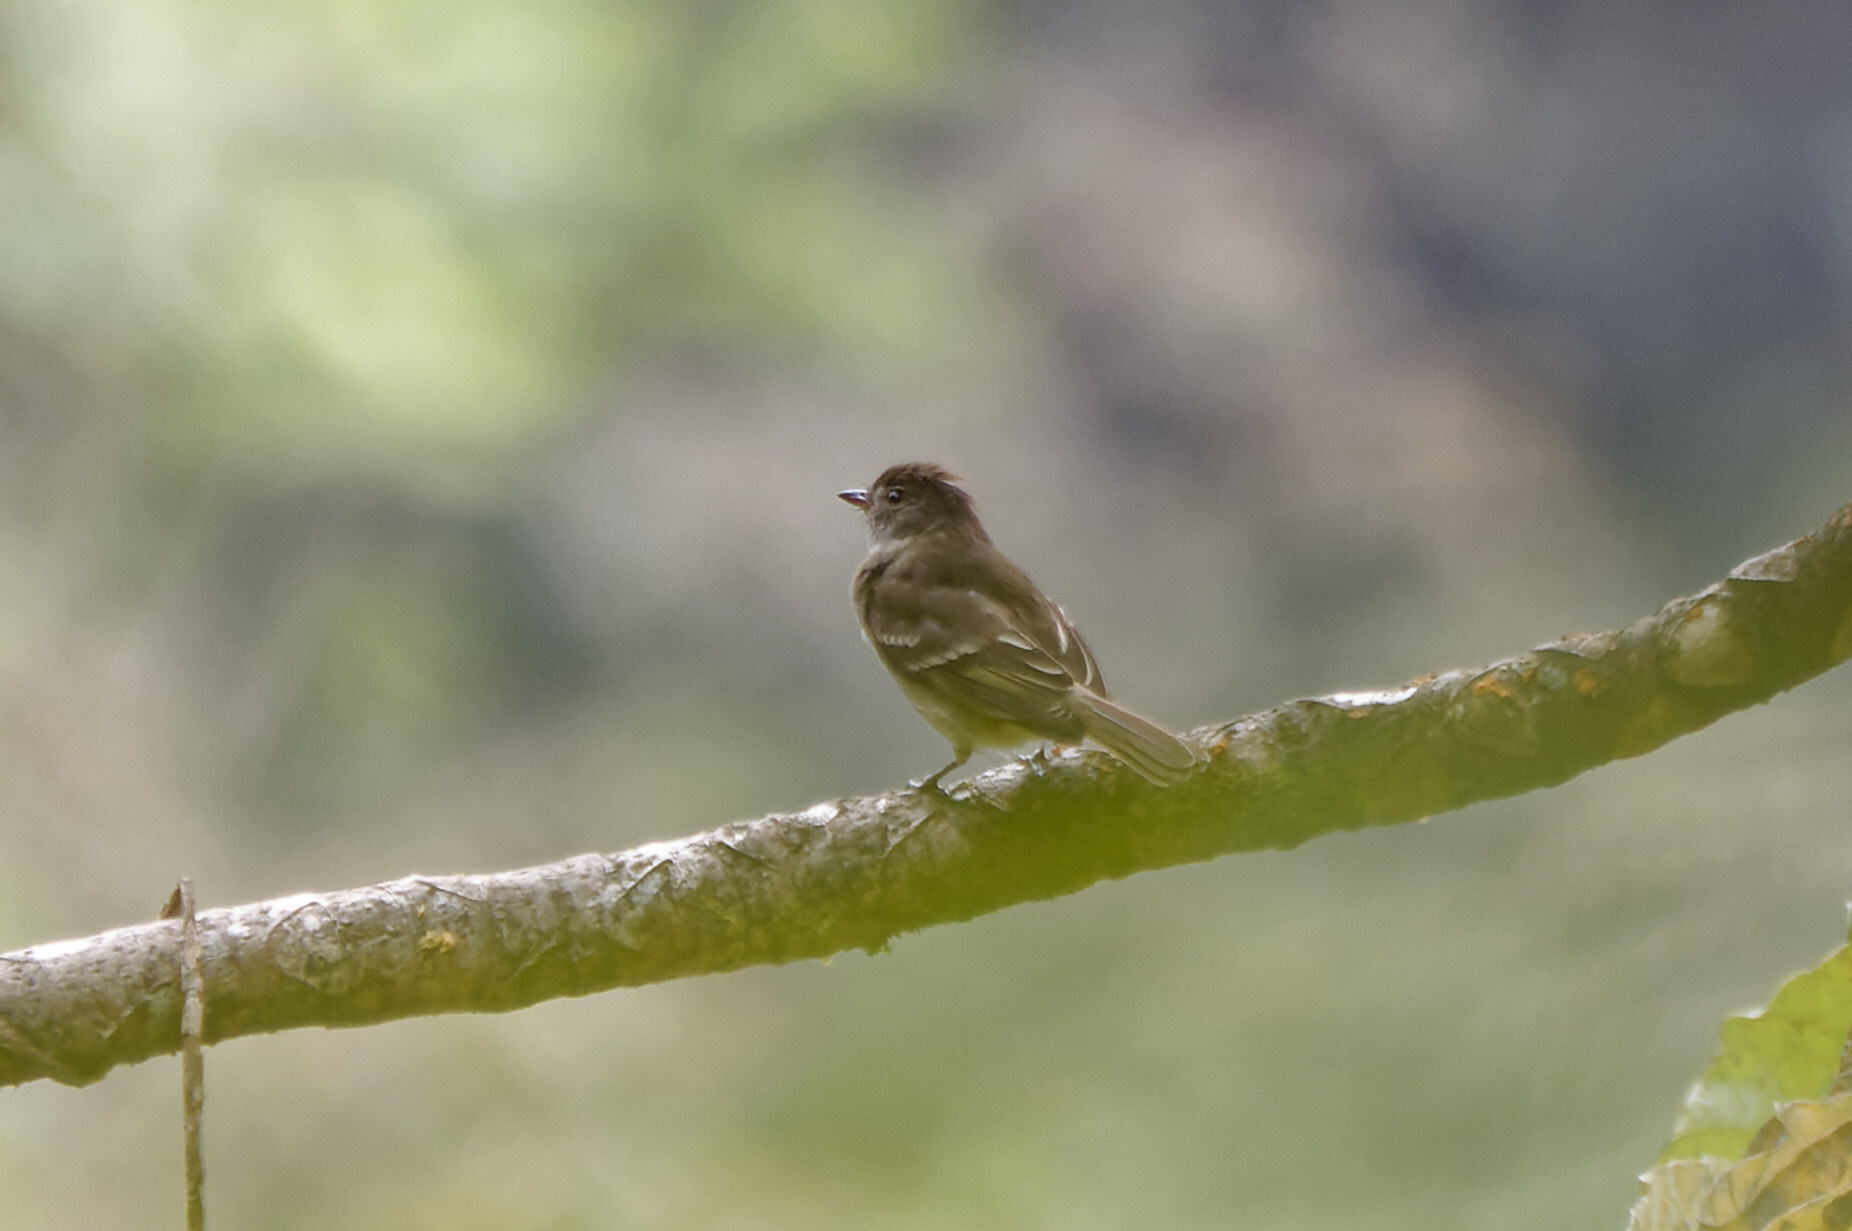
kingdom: Animalia
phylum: Chordata
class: Aves
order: Passeriformes
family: Tyrannidae
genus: Elaenia
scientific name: Elaenia martinica
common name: Caribbean elaenia
